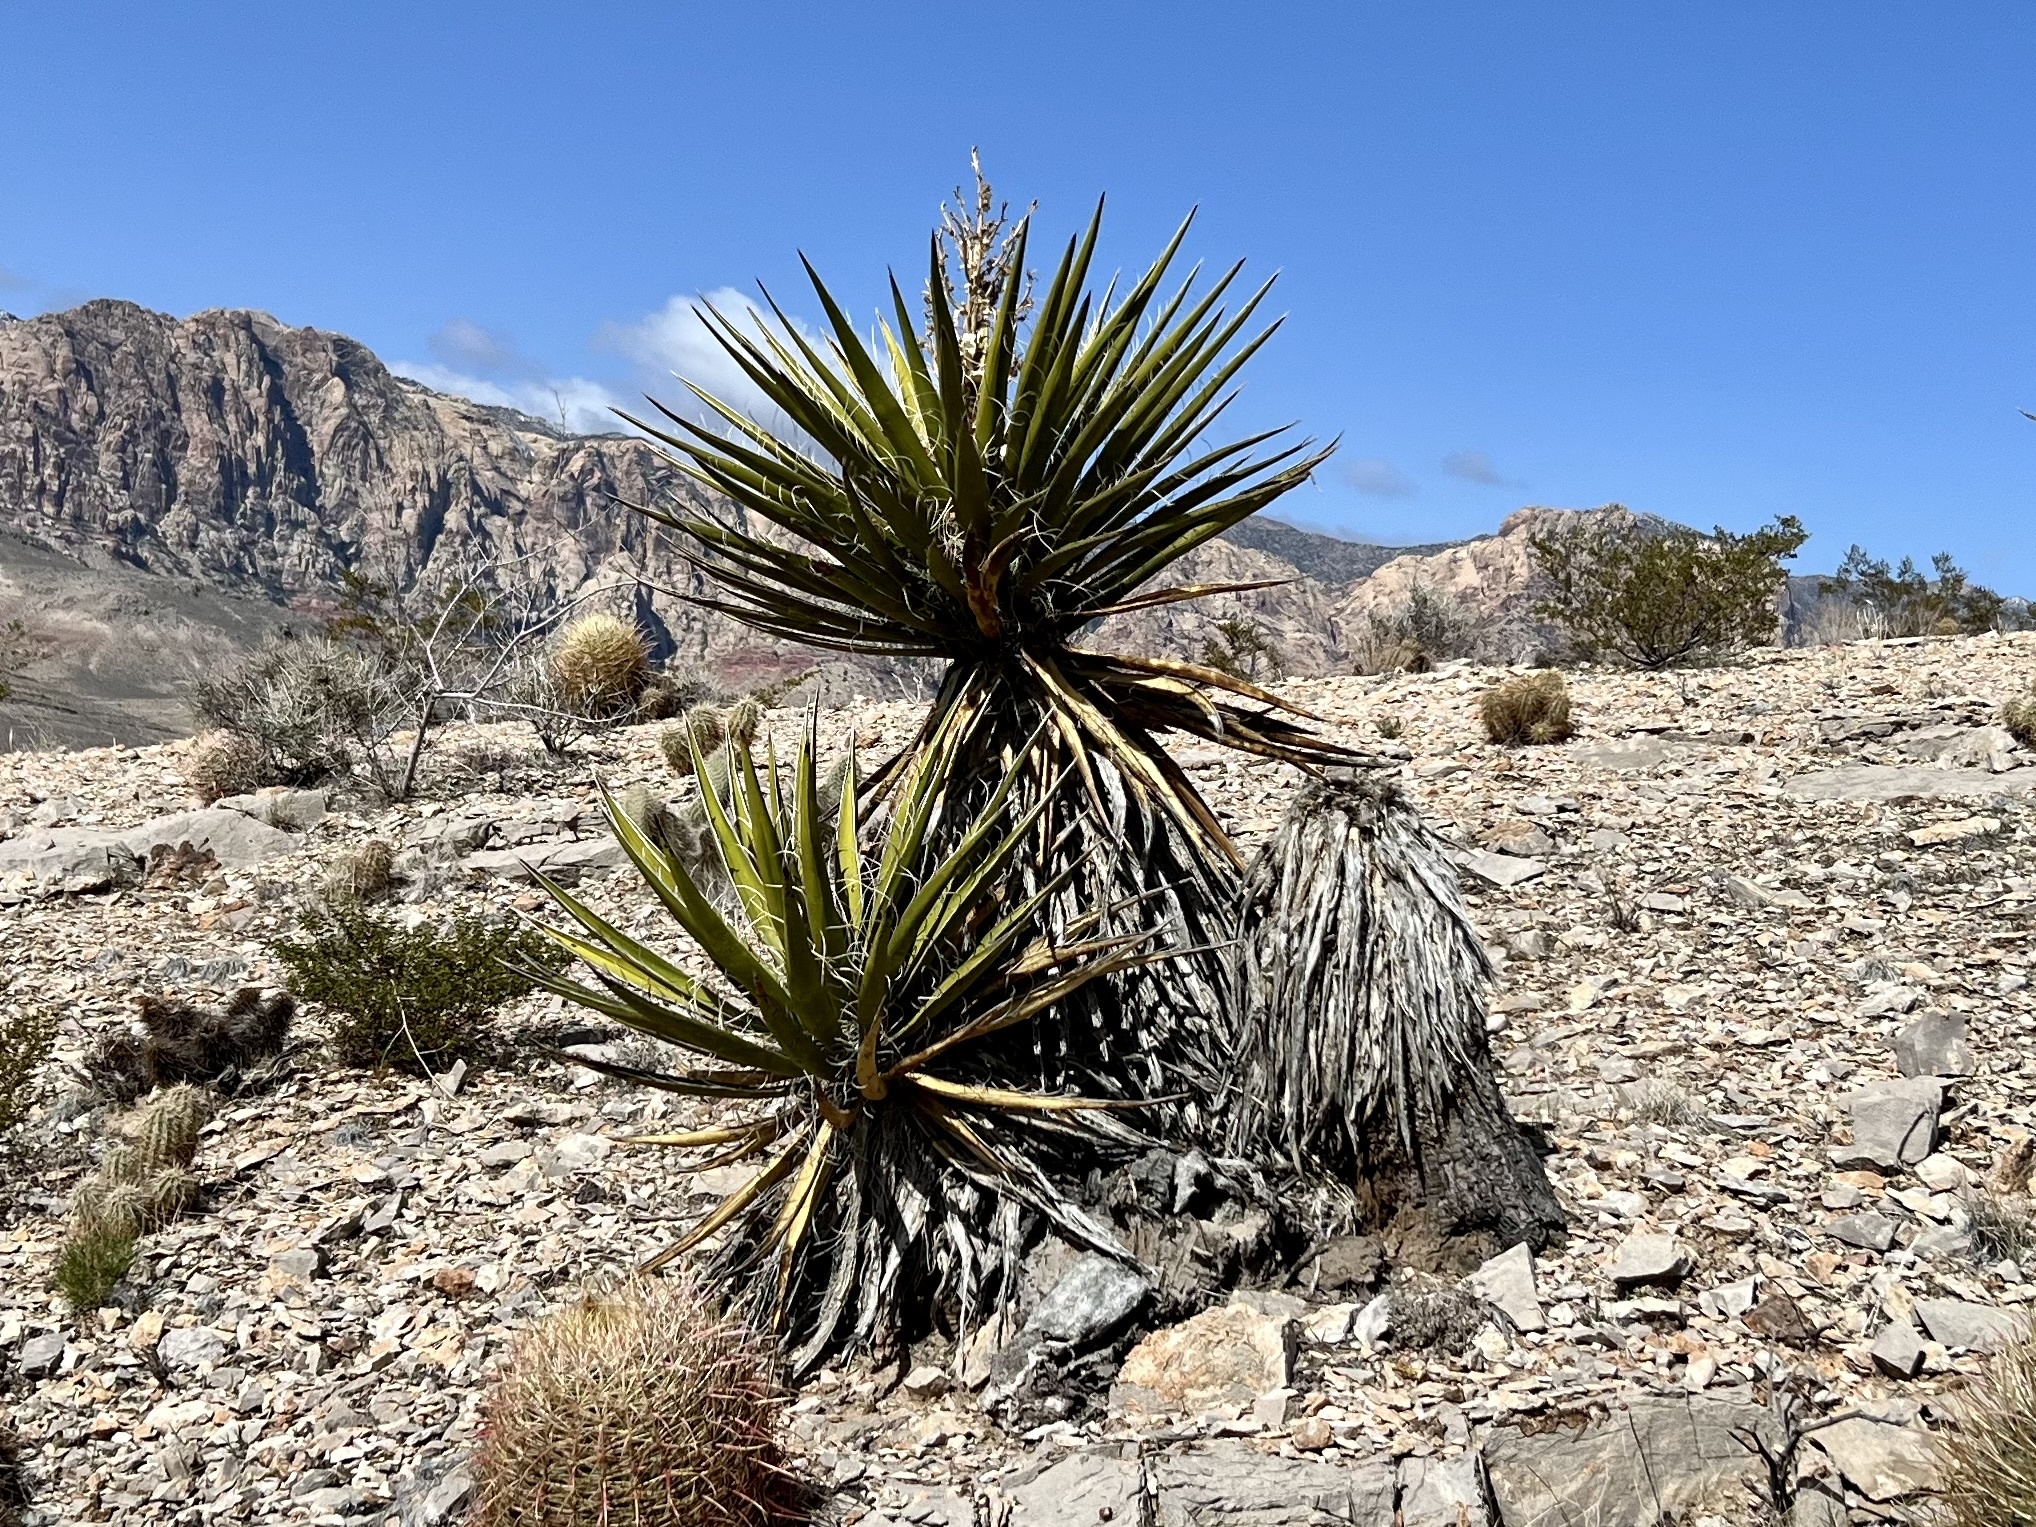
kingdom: Plantae
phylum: Tracheophyta
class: Liliopsida
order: Asparagales
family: Asparagaceae
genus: Yucca
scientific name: Yucca schidigera
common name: Mojave yucca
